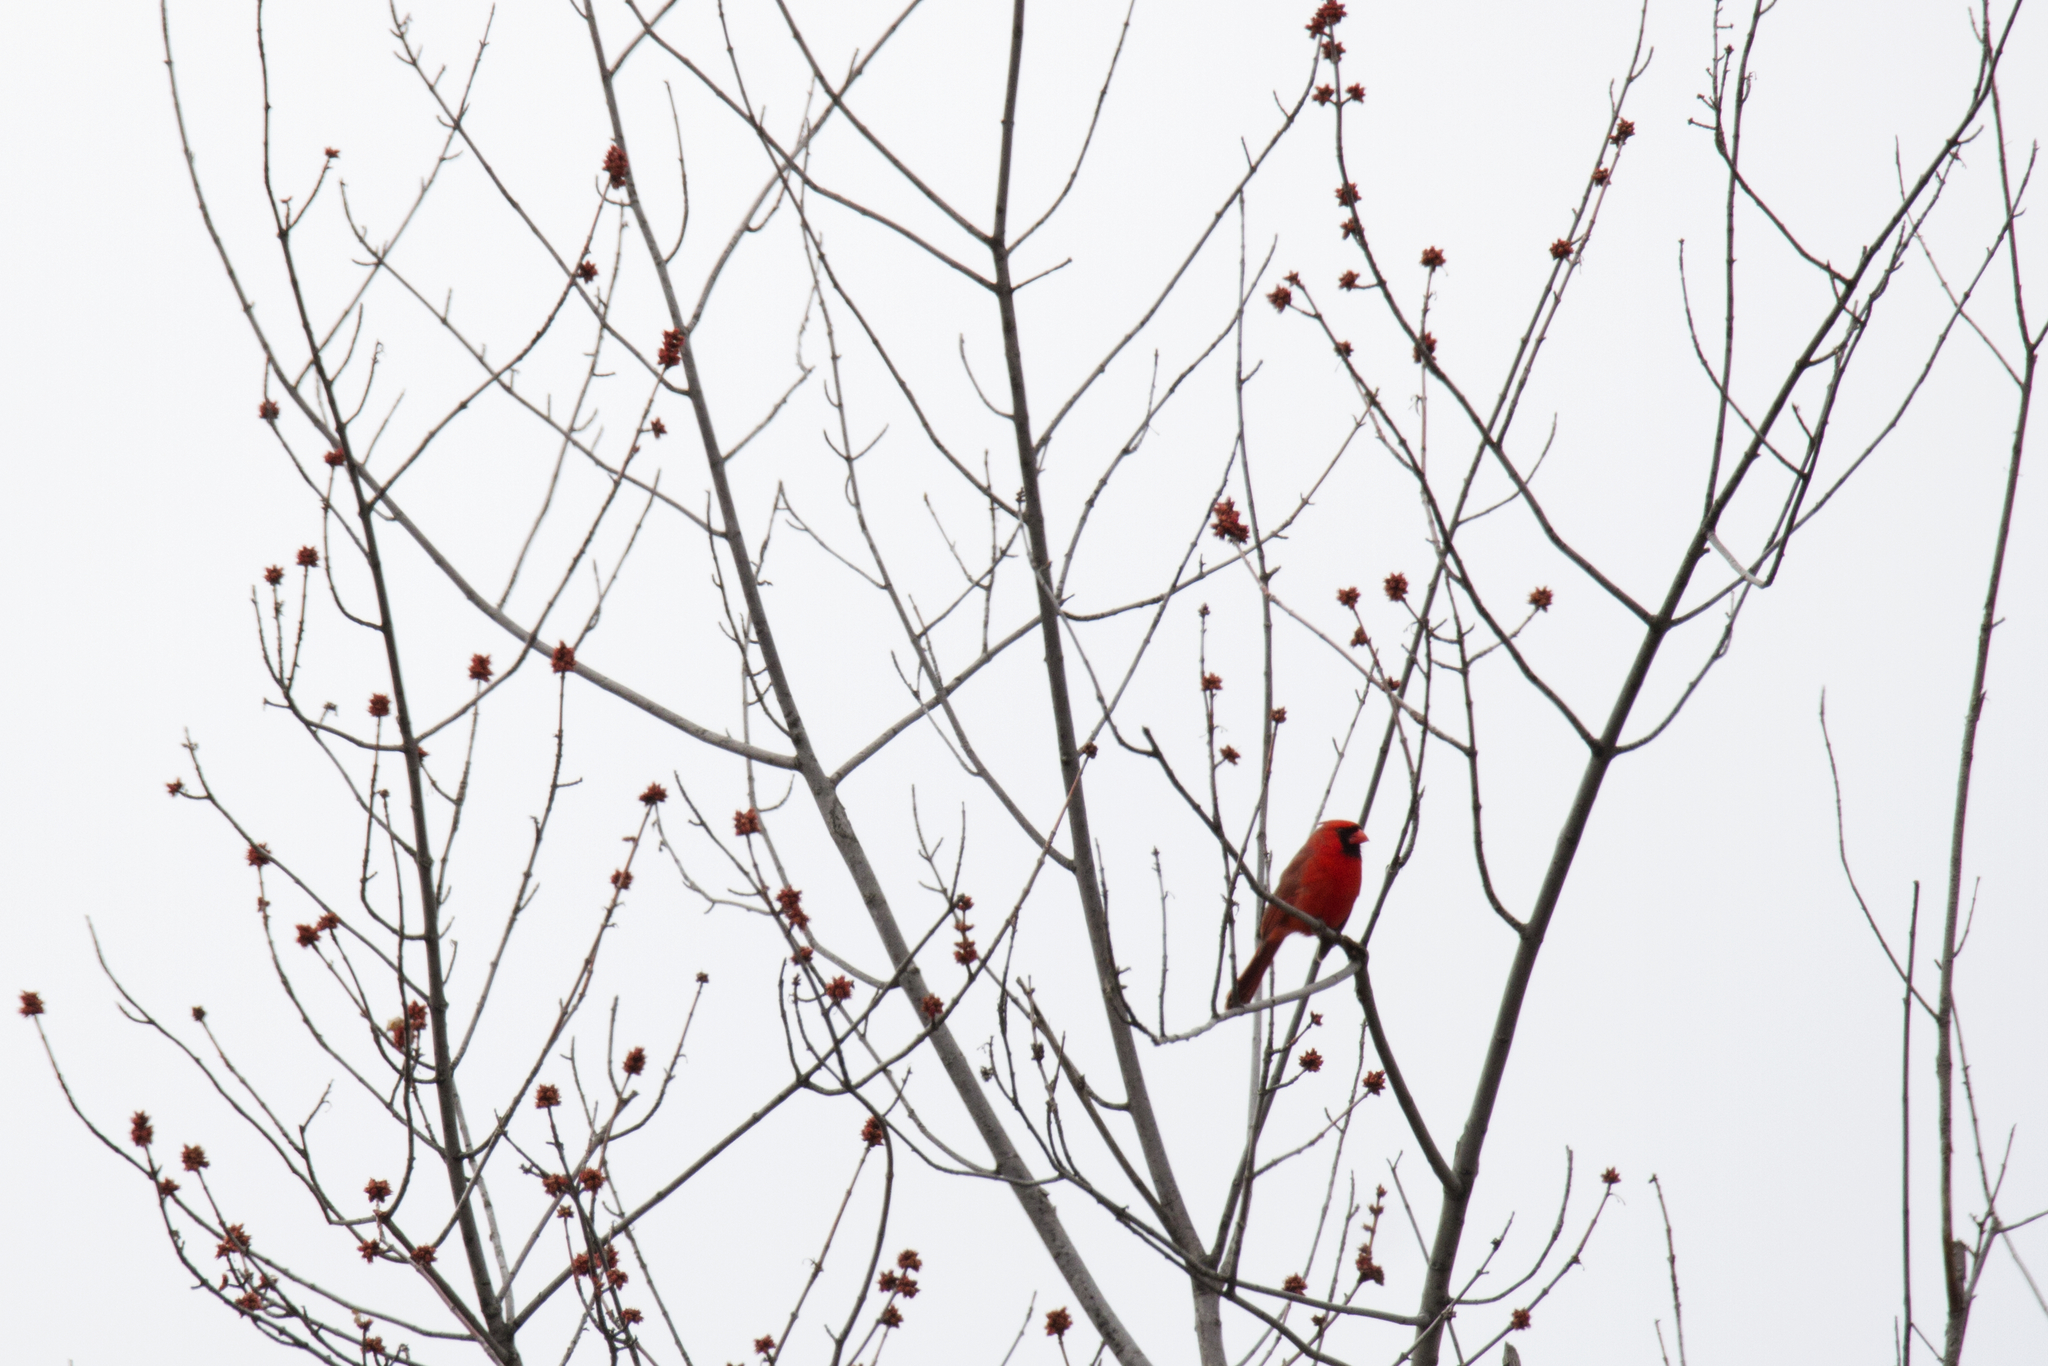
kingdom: Animalia
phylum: Chordata
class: Aves
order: Passeriformes
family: Cardinalidae
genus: Cardinalis
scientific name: Cardinalis cardinalis
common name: Northern cardinal
